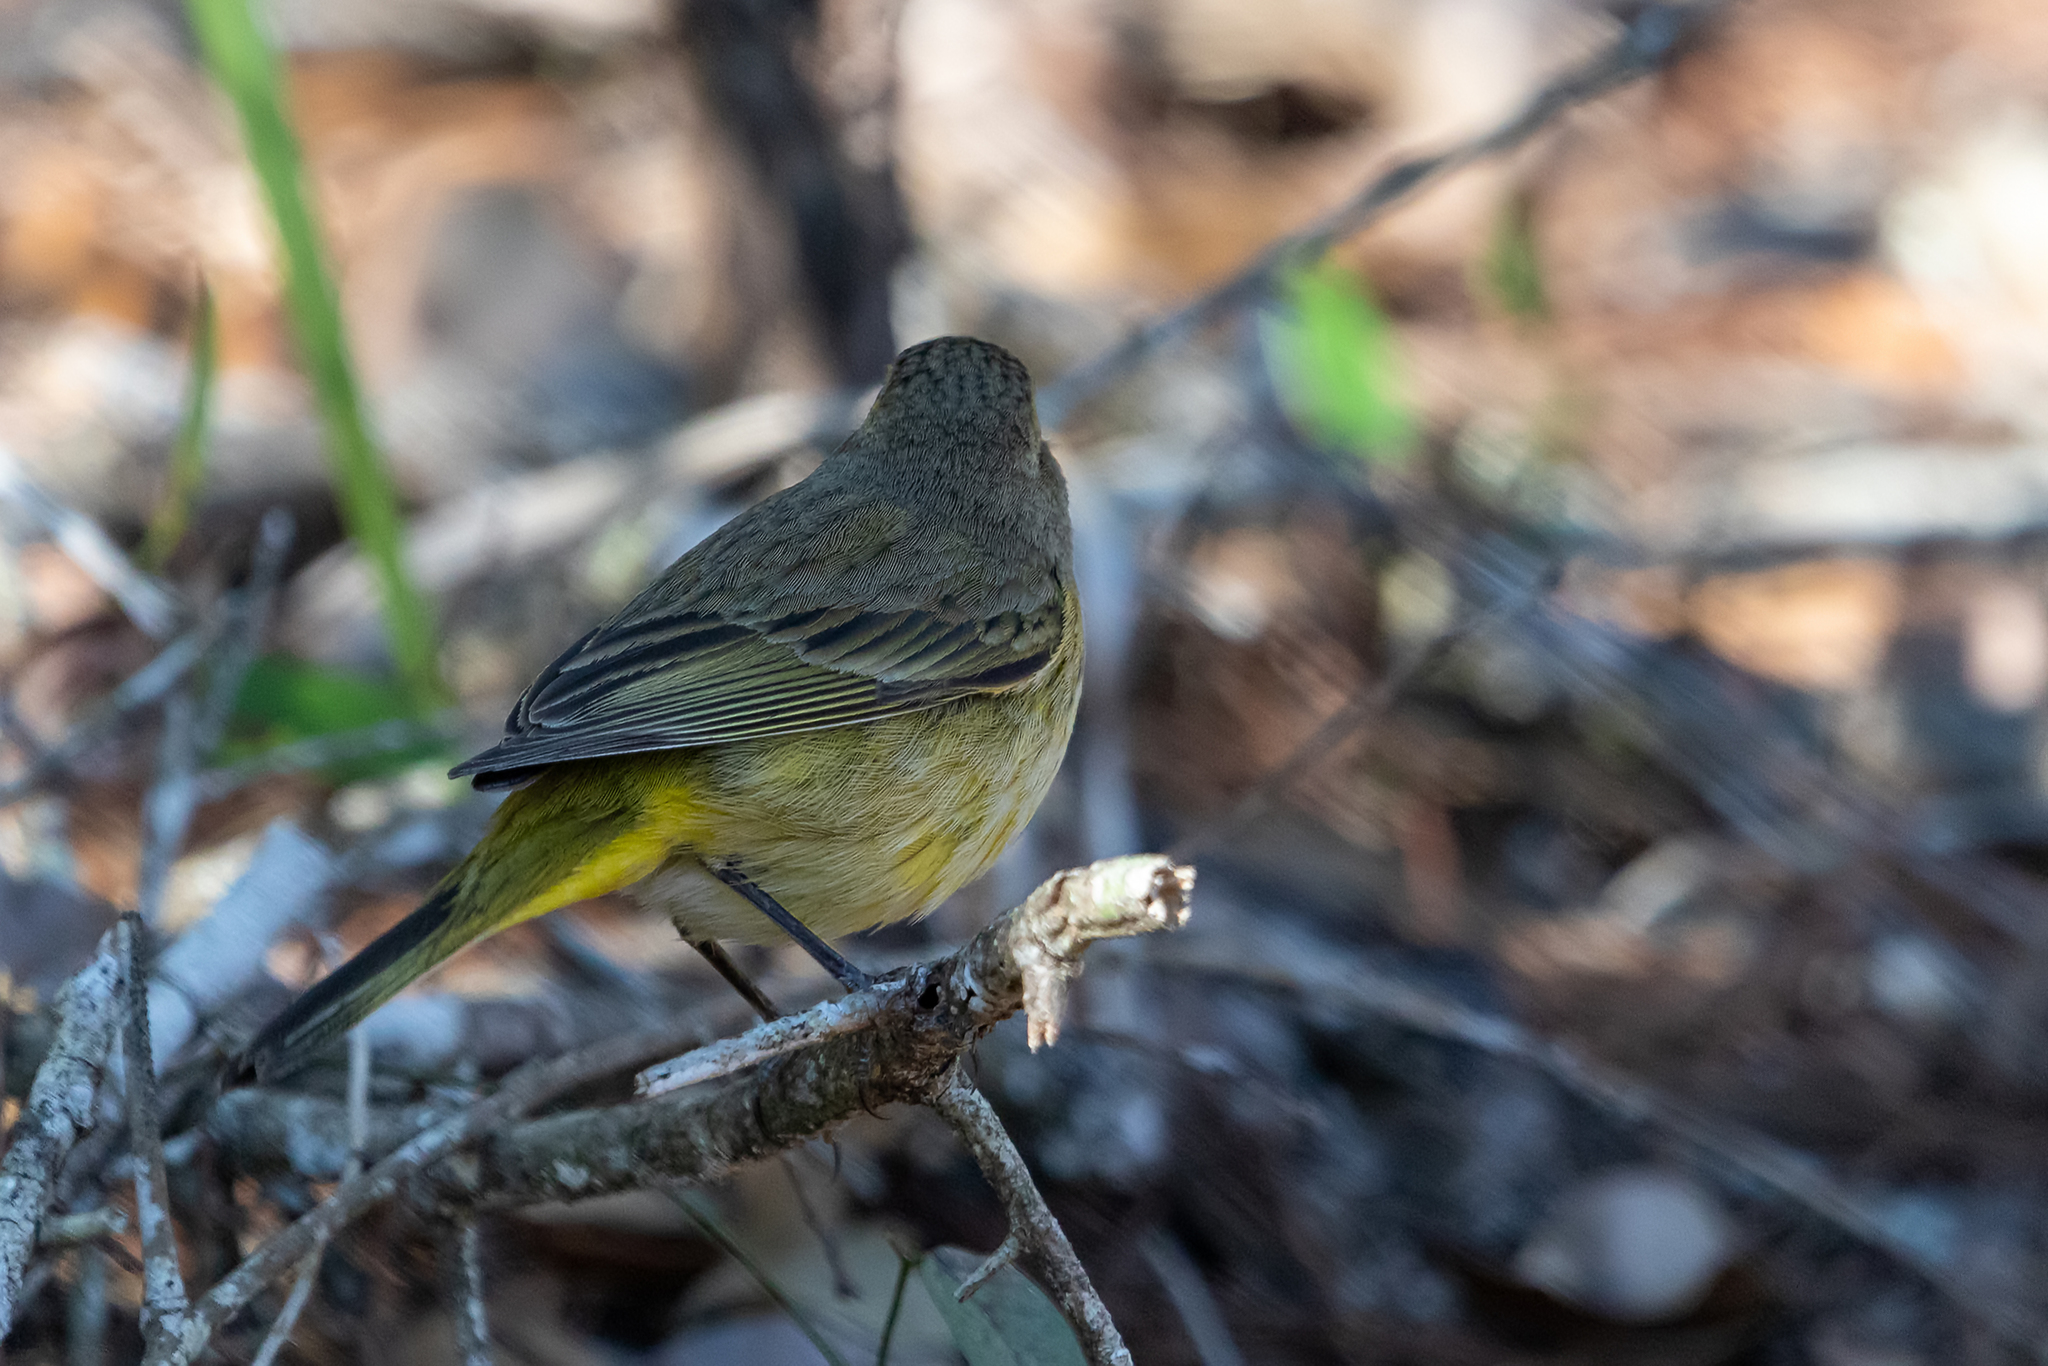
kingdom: Animalia
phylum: Chordata
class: Aves
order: Passeriformes
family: Parulidae
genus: Setophaga
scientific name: Setophaga palmarum
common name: Palm warbler
